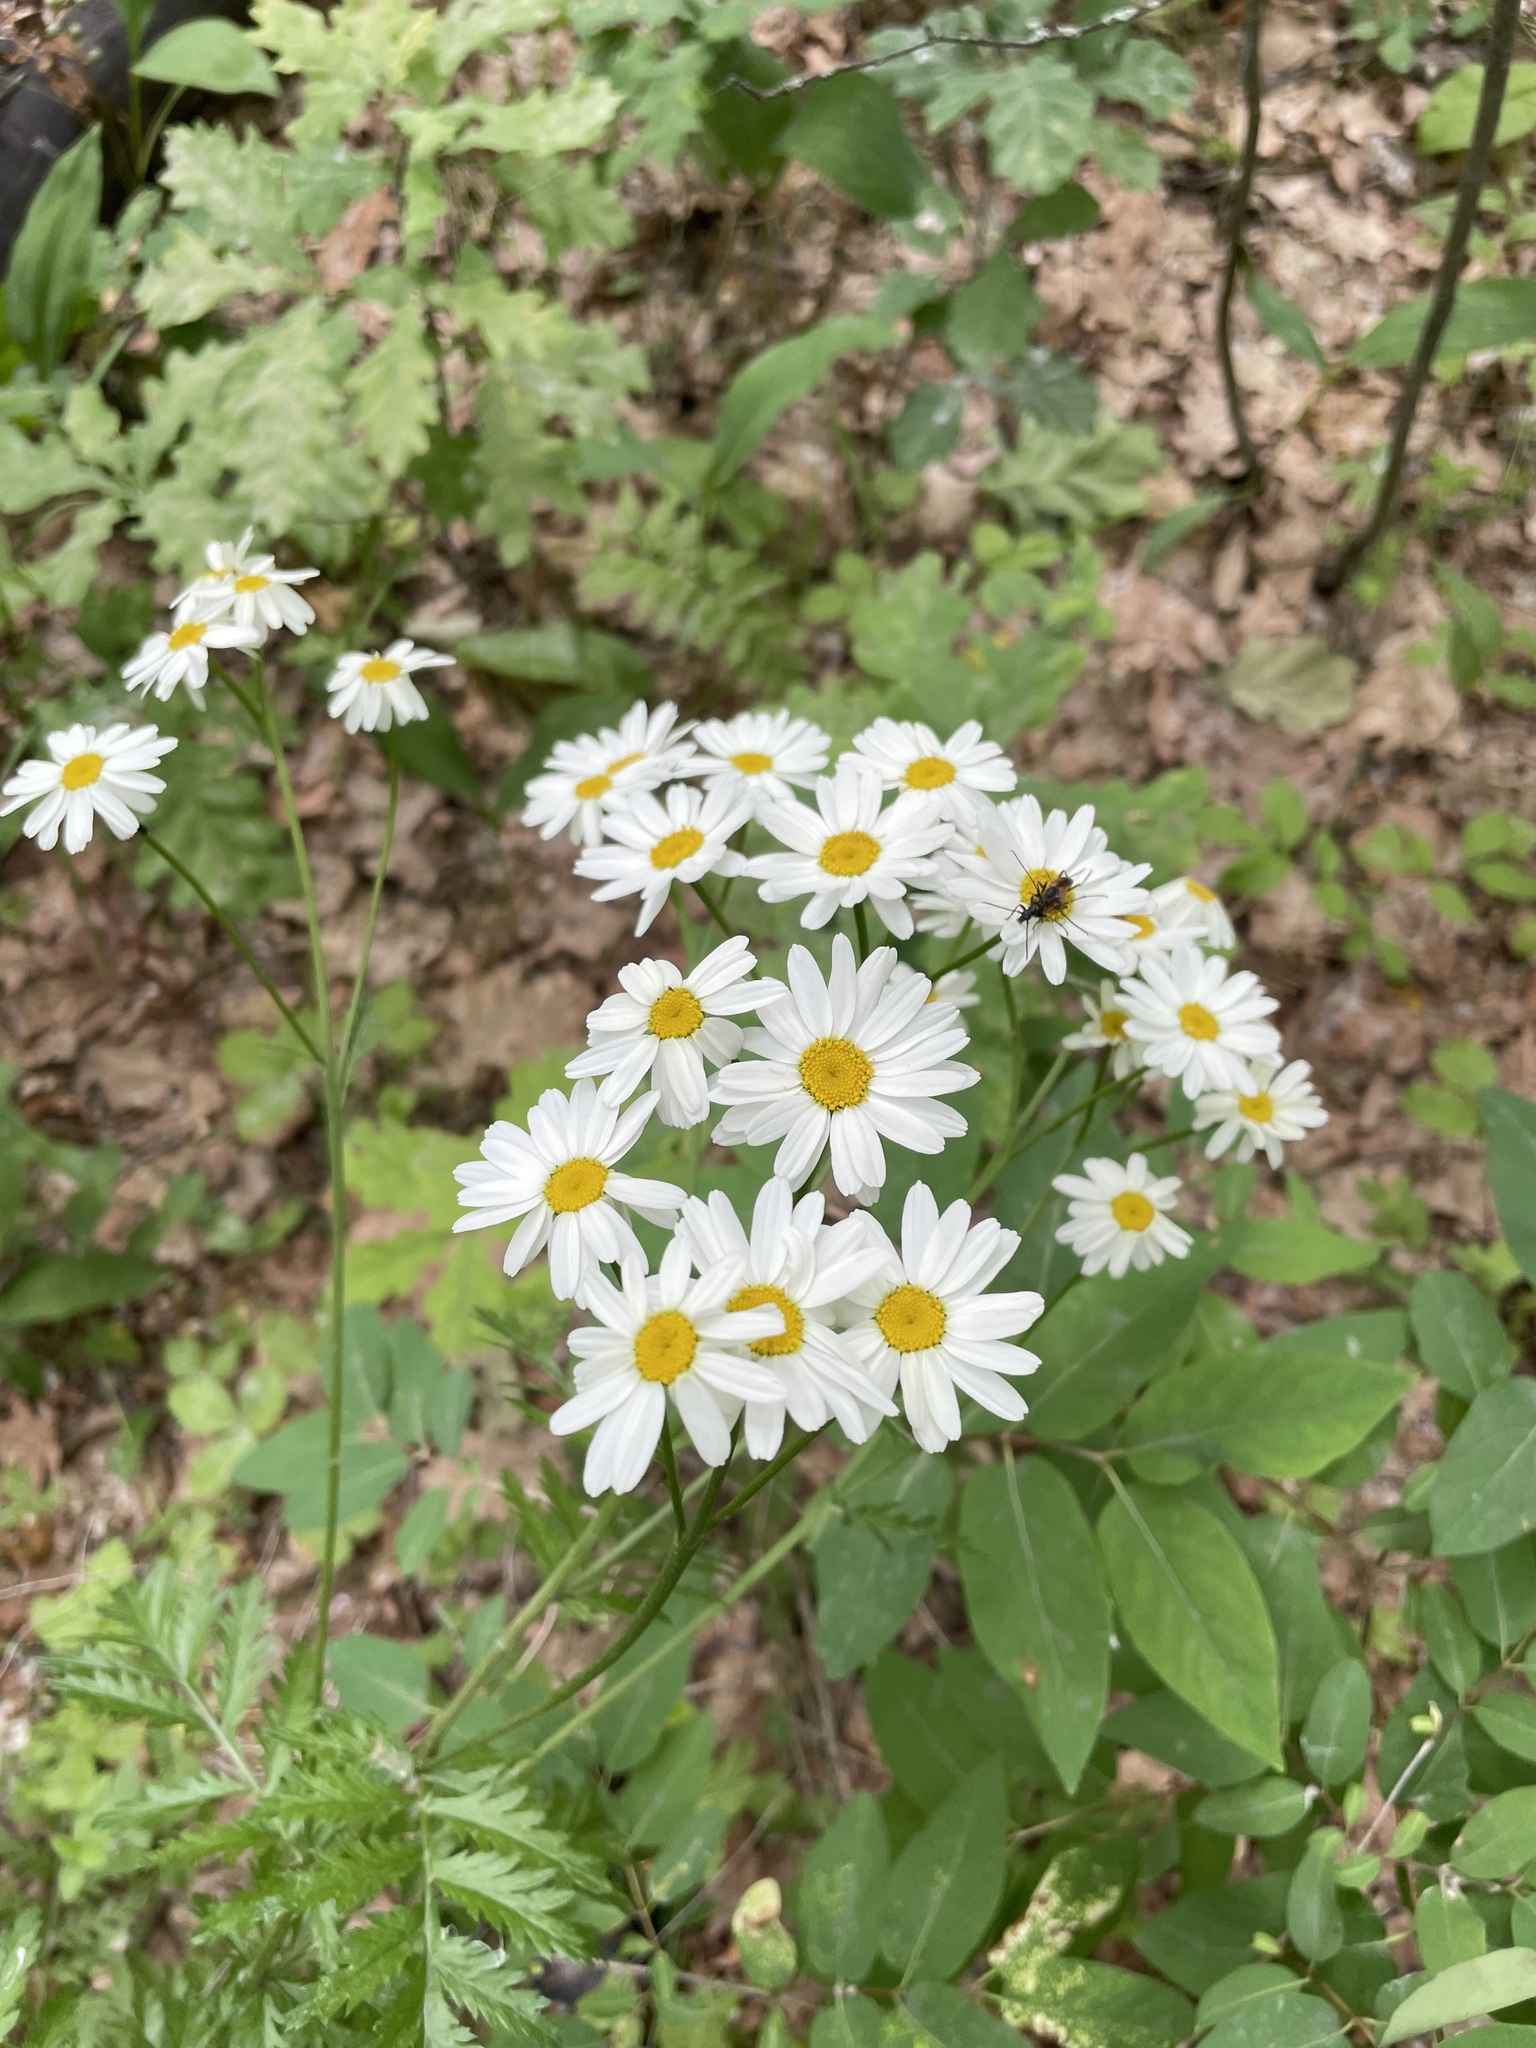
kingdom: Plantae
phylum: Tracheophyta
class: Magnoliopsida
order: Asterales
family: Asteraceae
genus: Tanacetum
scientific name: Tanacetum corymbosum
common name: Scentless feverfew
